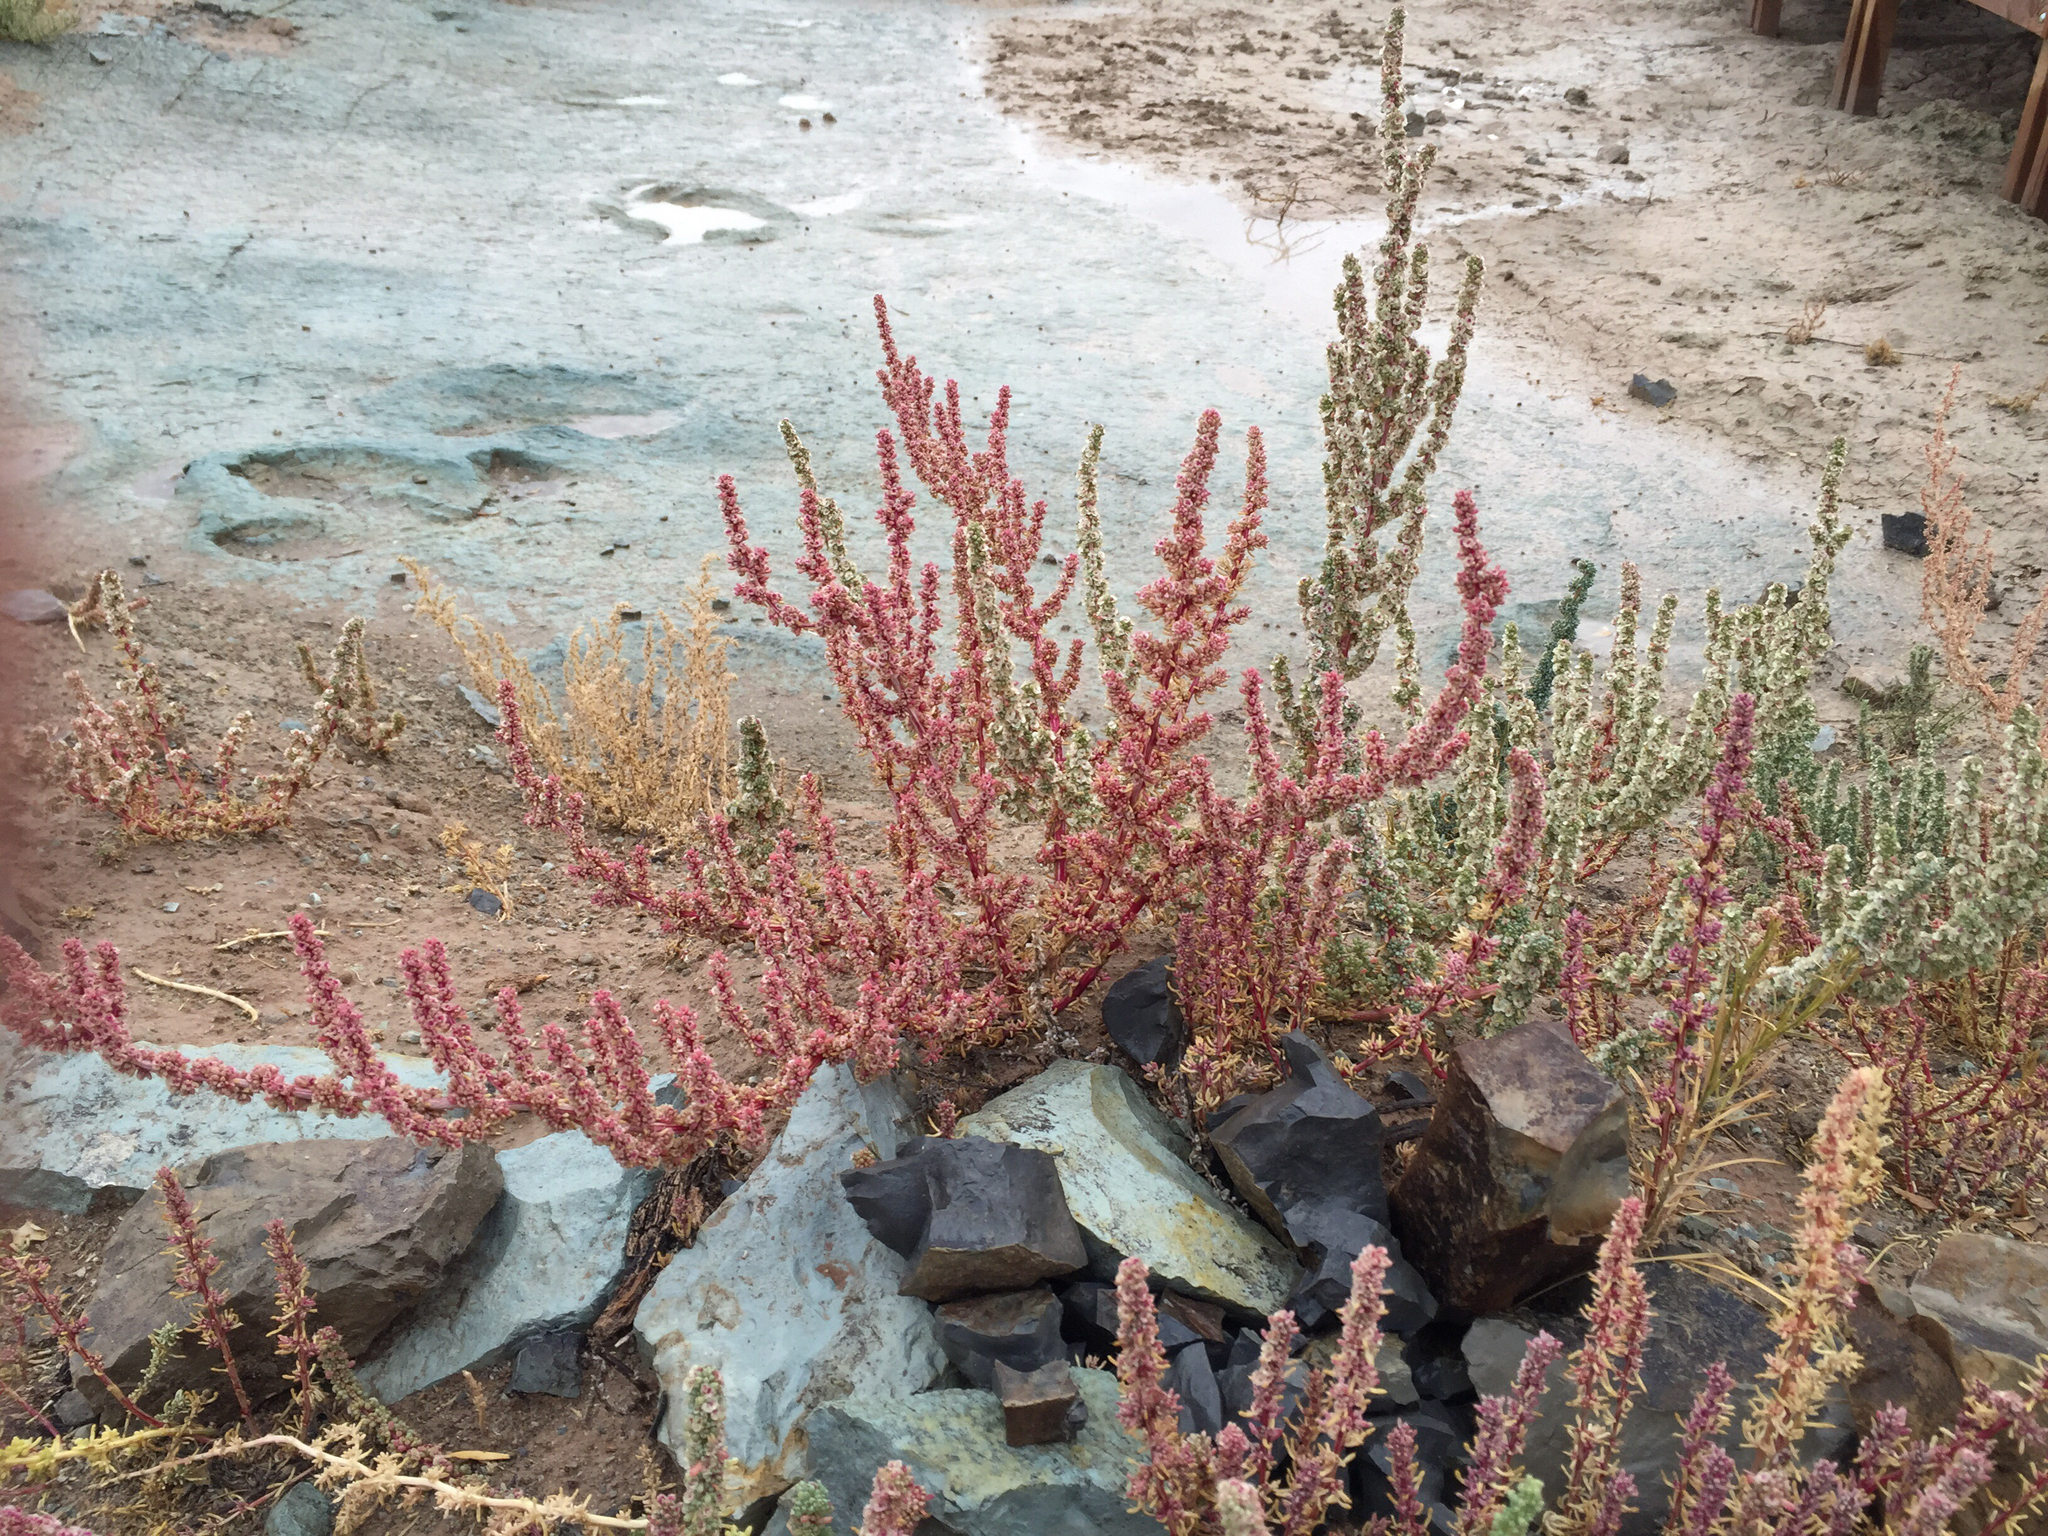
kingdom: Plantae
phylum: Tracheophyta
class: Magnoliopsida
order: Caryophyllales
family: Amaranthaceae
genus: Halogeton
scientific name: Halogeton glomeratus
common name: Saltlover
